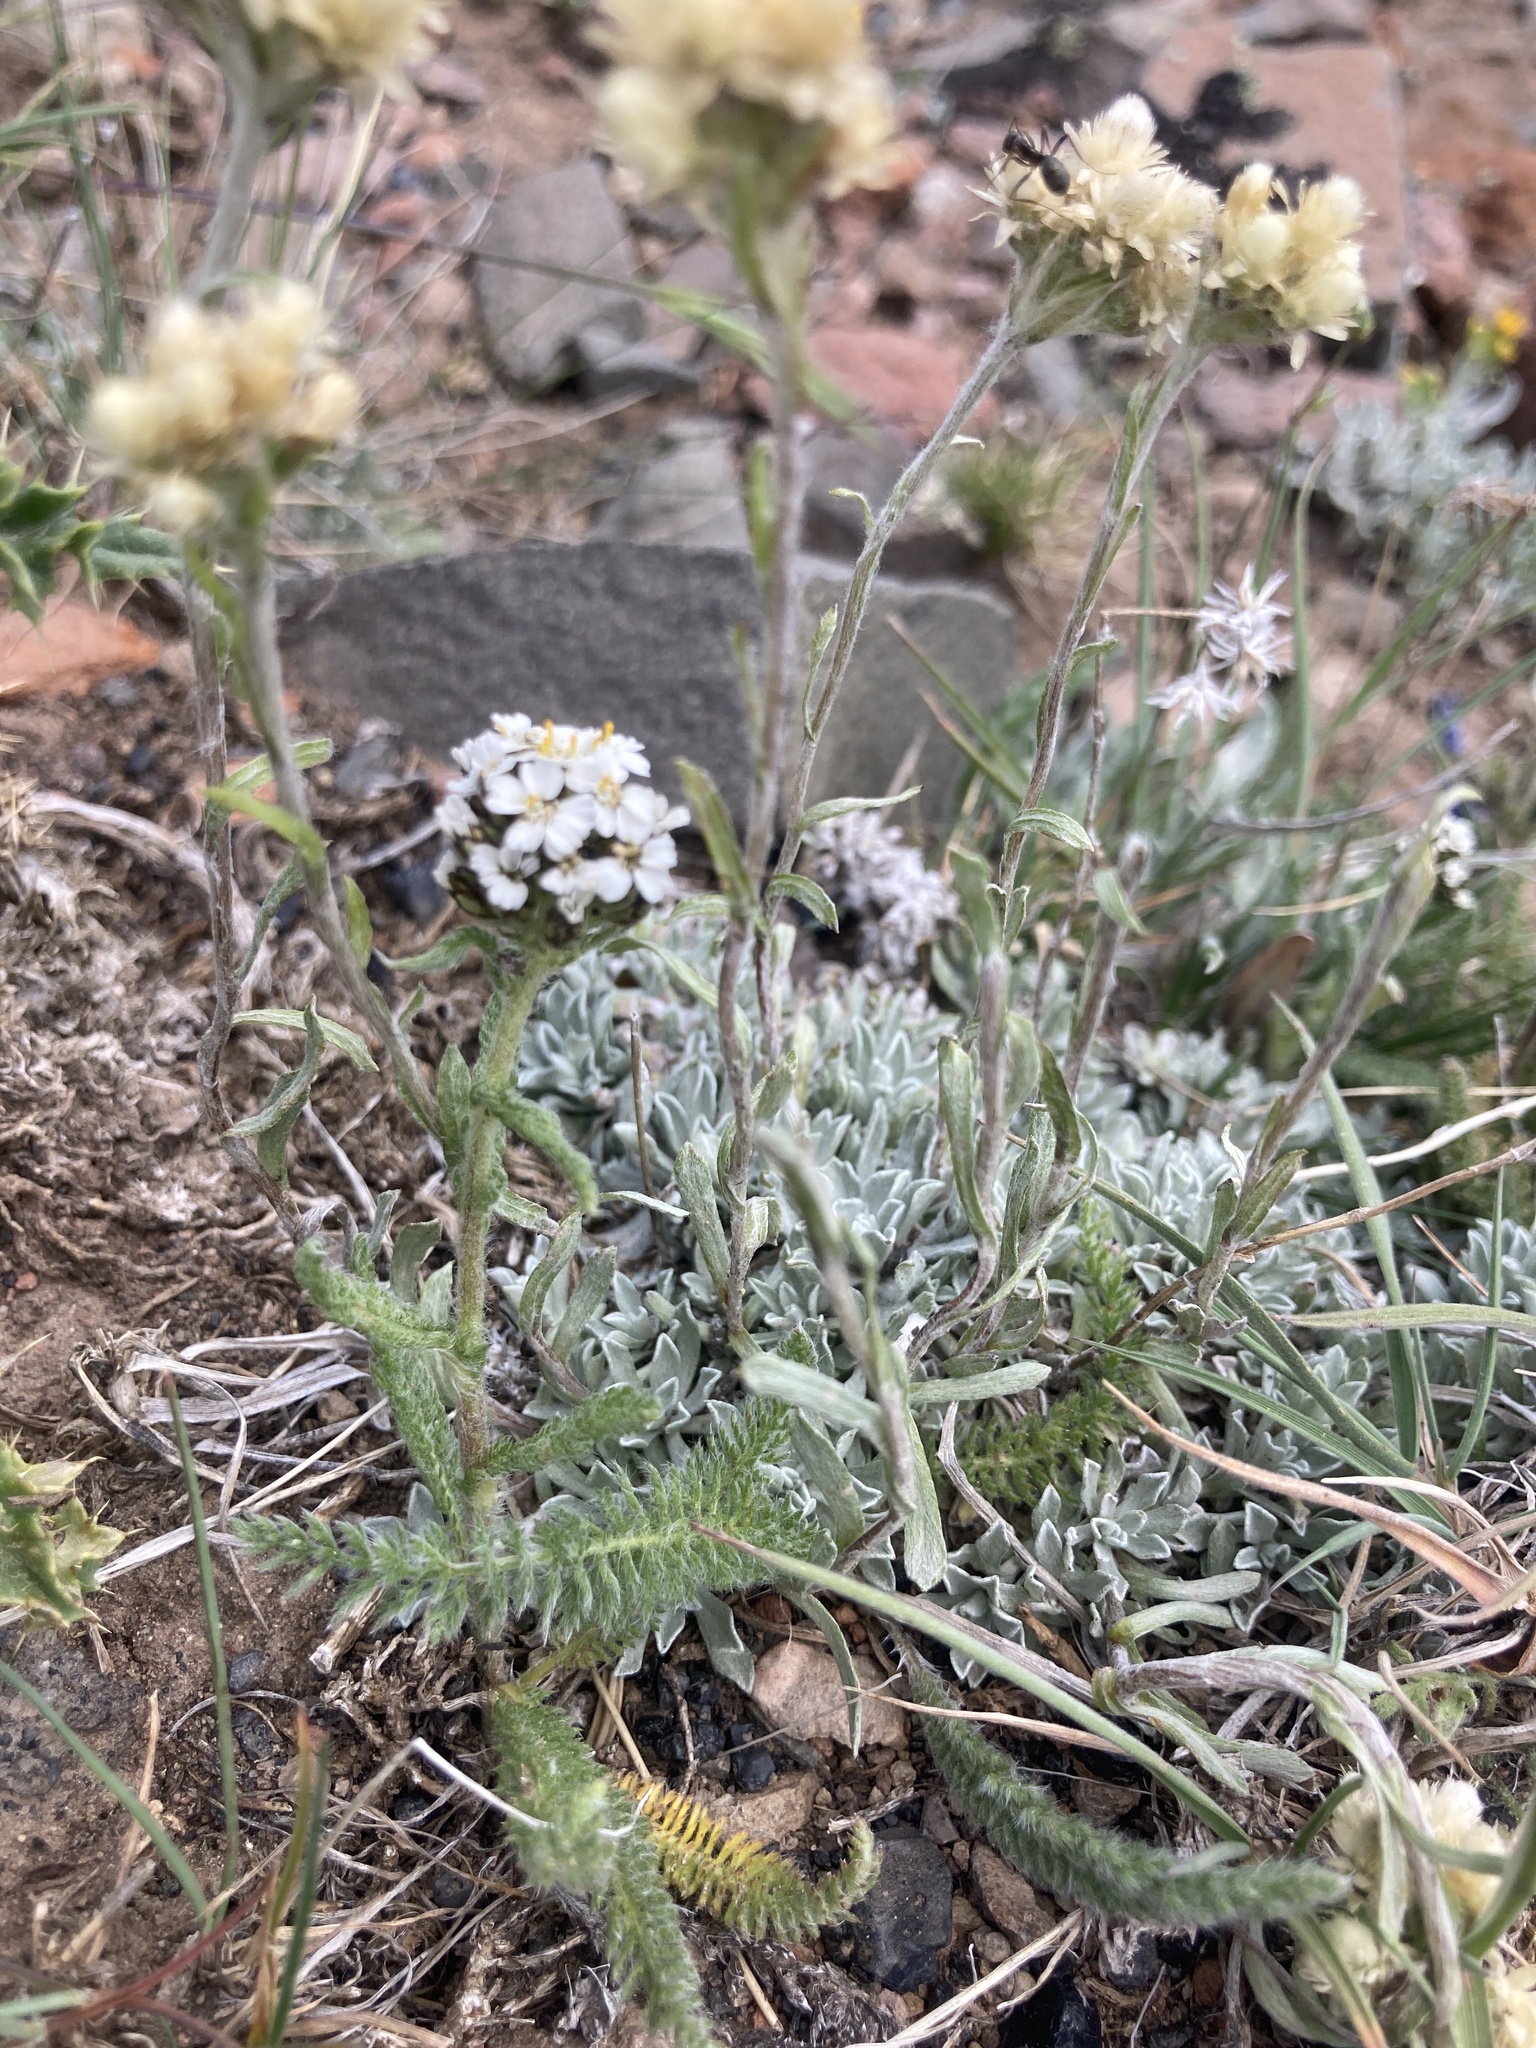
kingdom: Plantae
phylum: Tracheophyta
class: Magnoliopsida
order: Asterales
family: Asteraceae
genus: Achillea
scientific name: Achillea millefolium
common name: Yarrow
